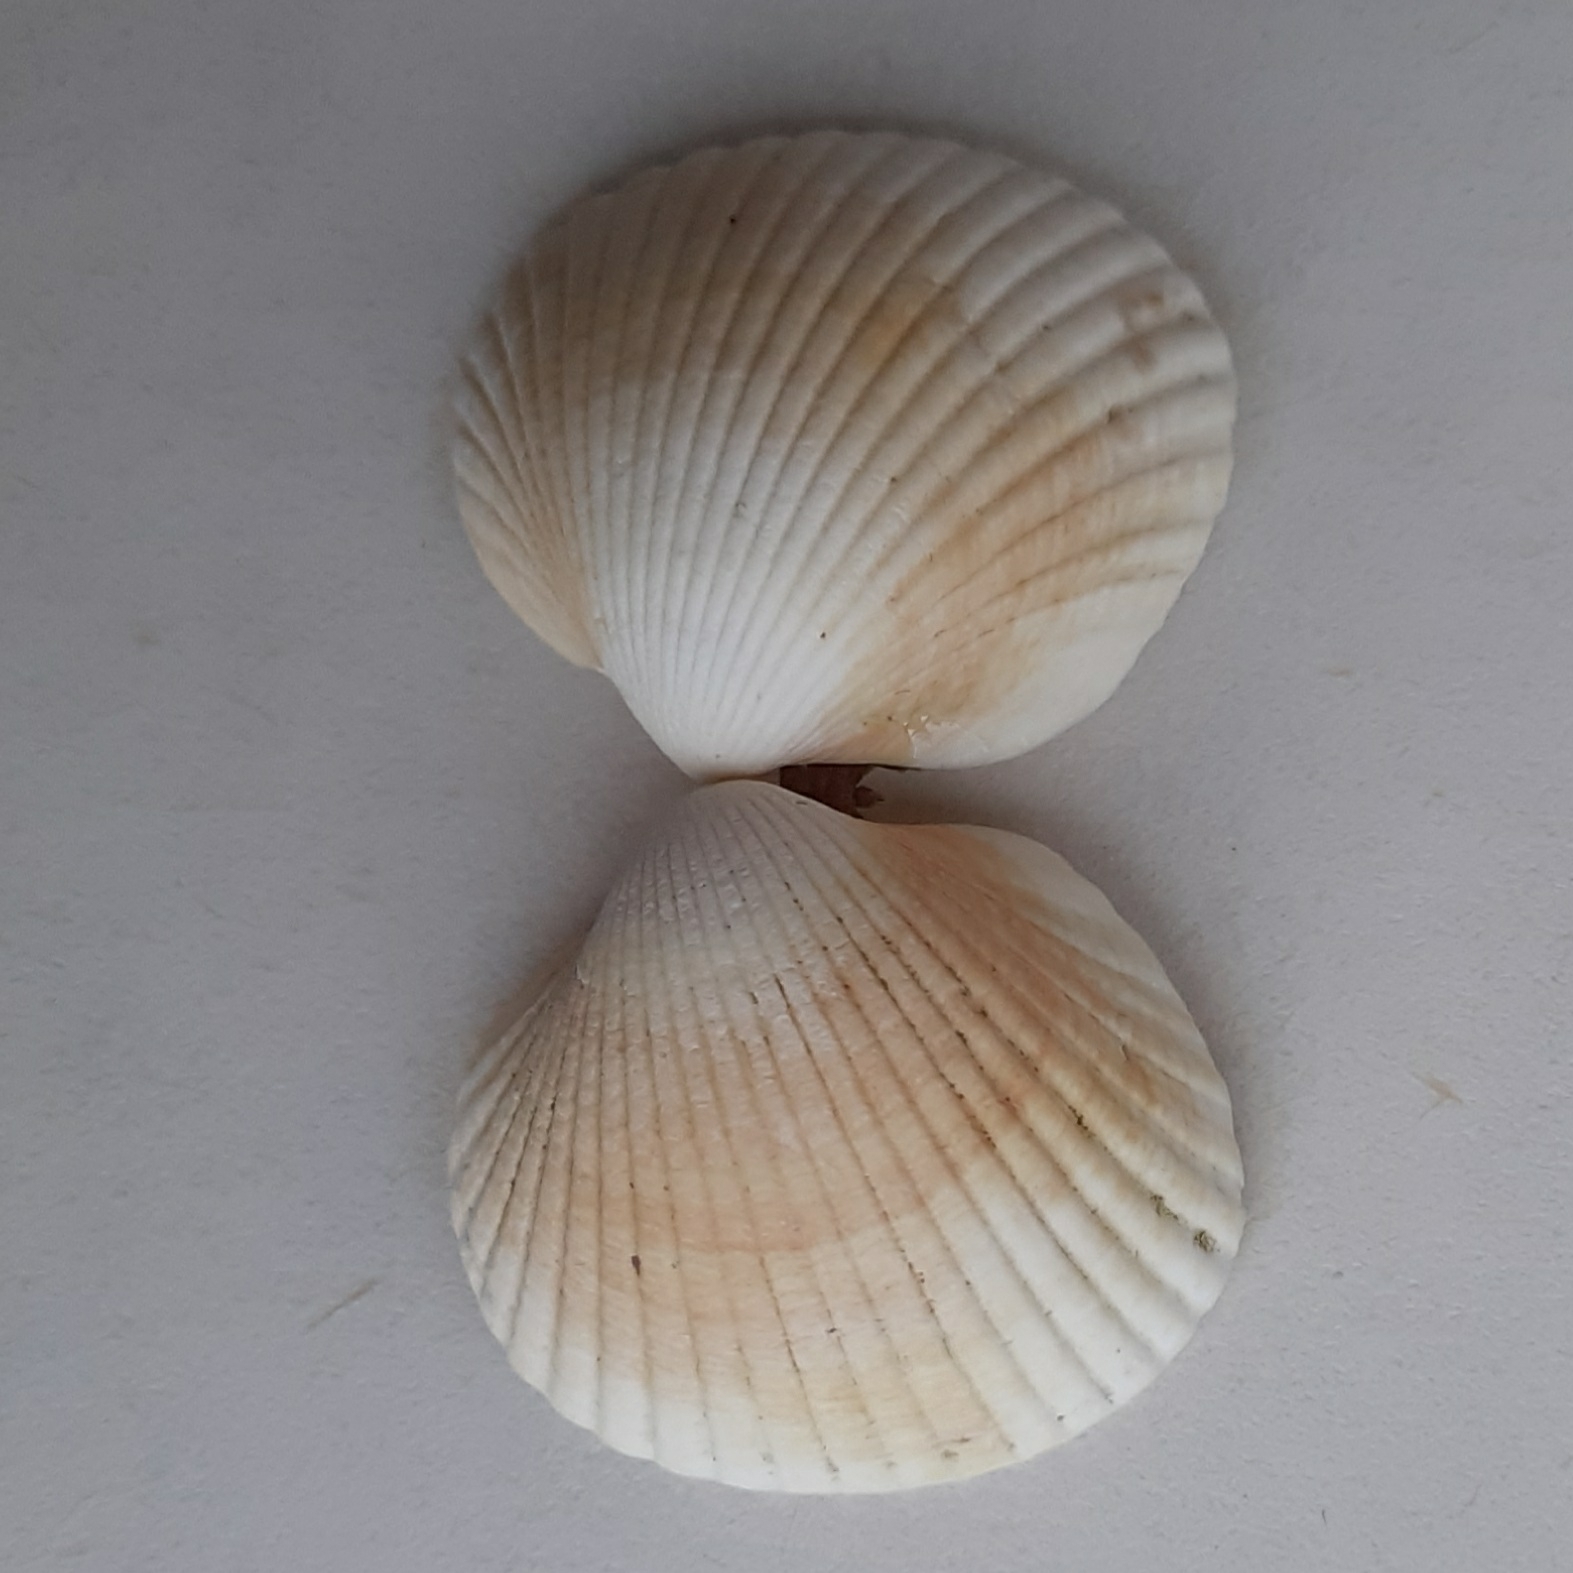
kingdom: Animalia
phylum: Mollusca
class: Bivalvia
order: Cardiida
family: Cardiidae
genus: Cerastoderma
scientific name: Cerastoderma edule
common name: Common cockle
